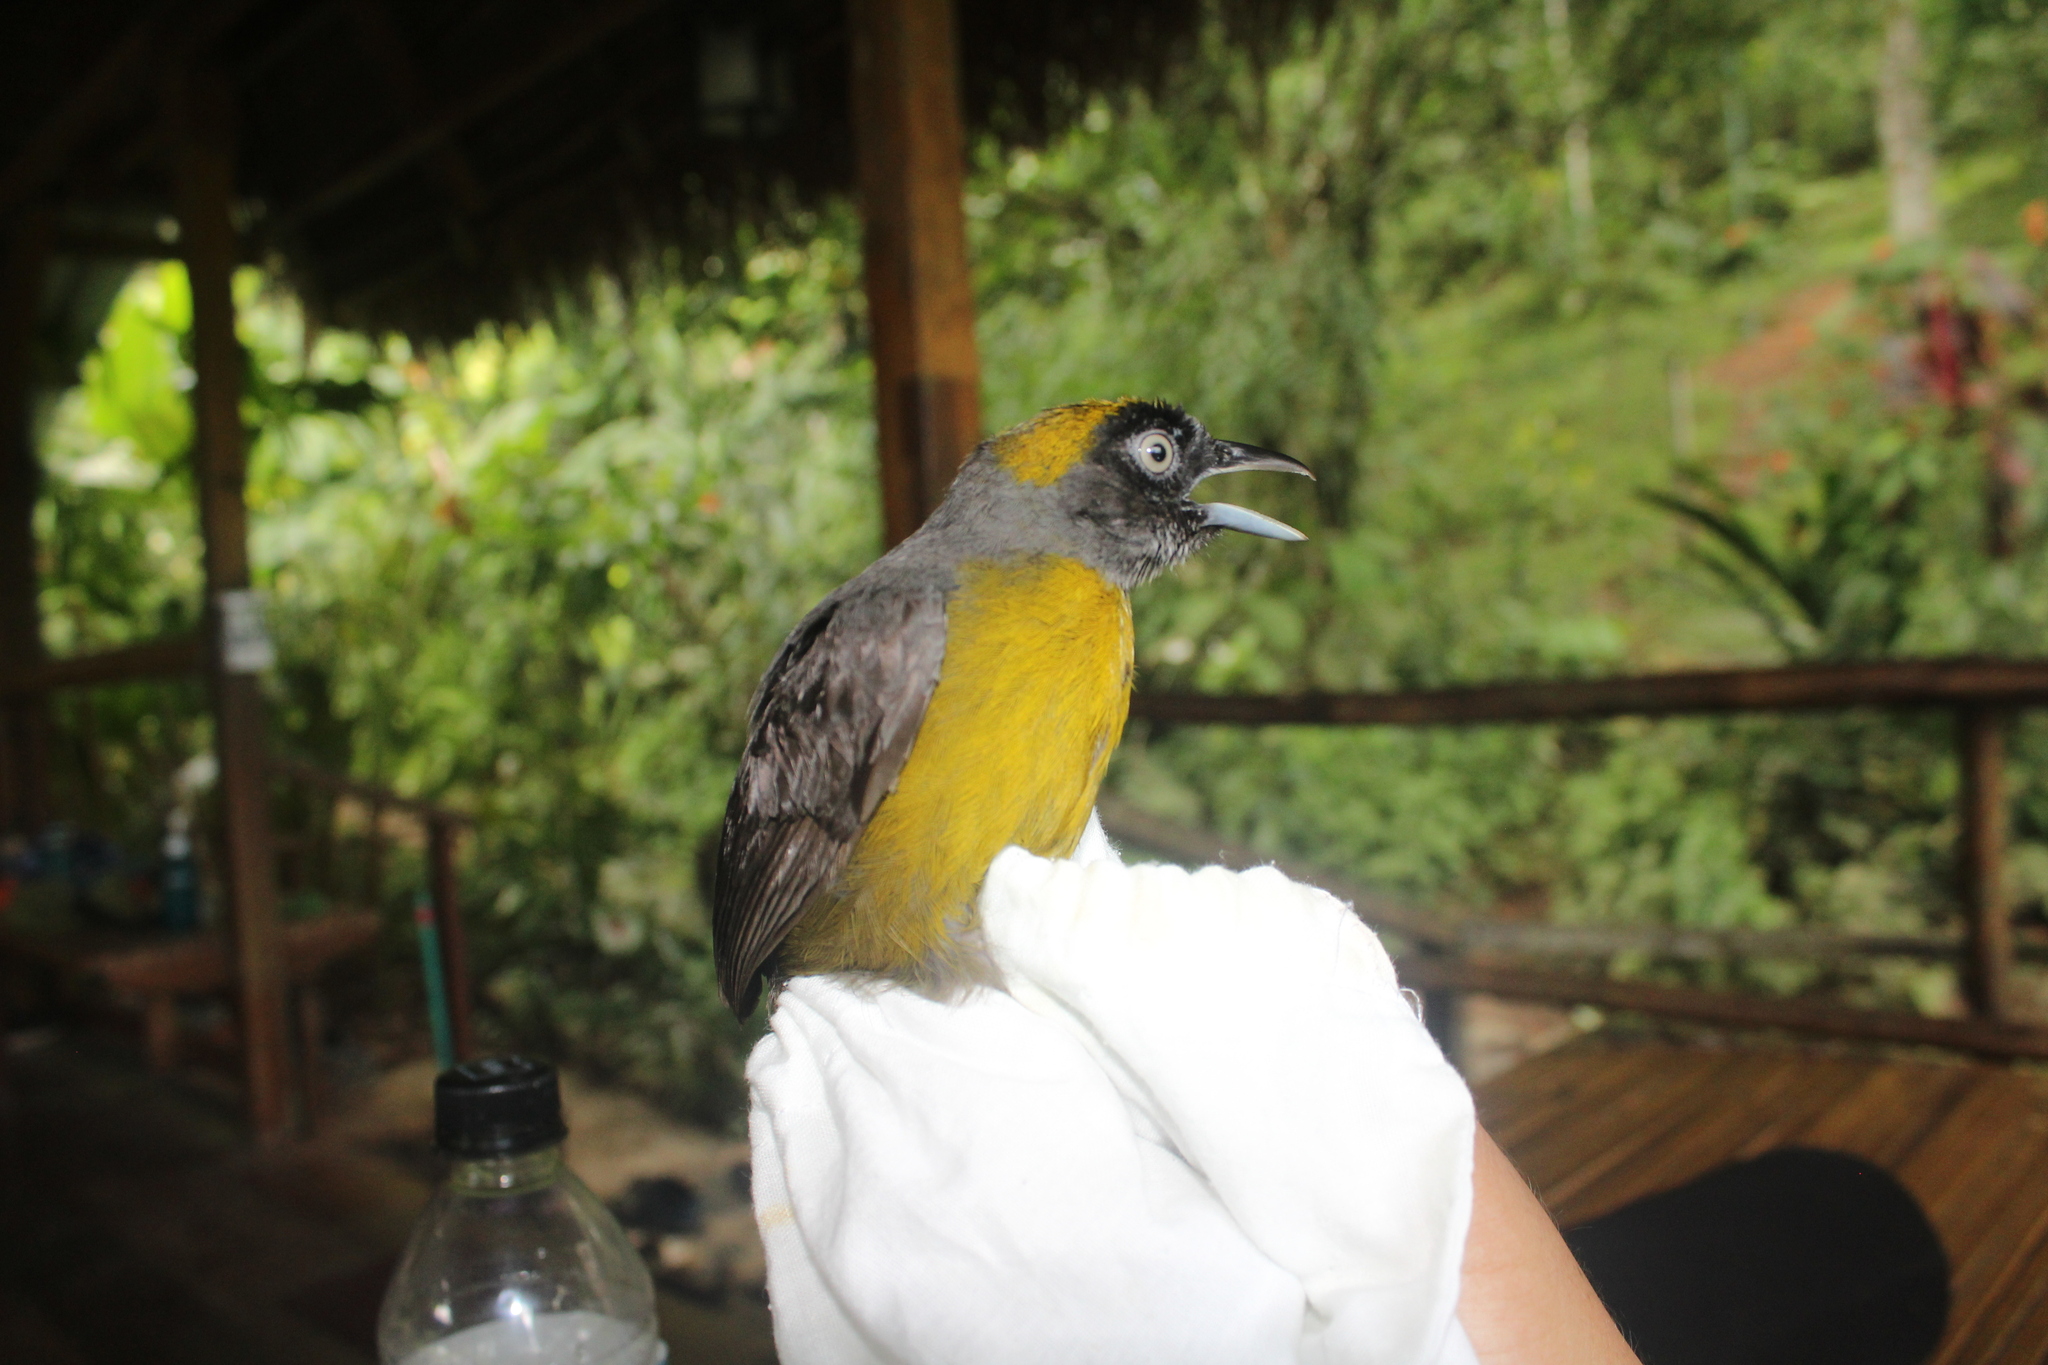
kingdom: Animalia
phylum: Chordata
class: Aves
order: Passeriformes
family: Mitrospingidae
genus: Mitrospingus
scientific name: Mitrospingus cassinii
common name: Dusky-faced tanager
